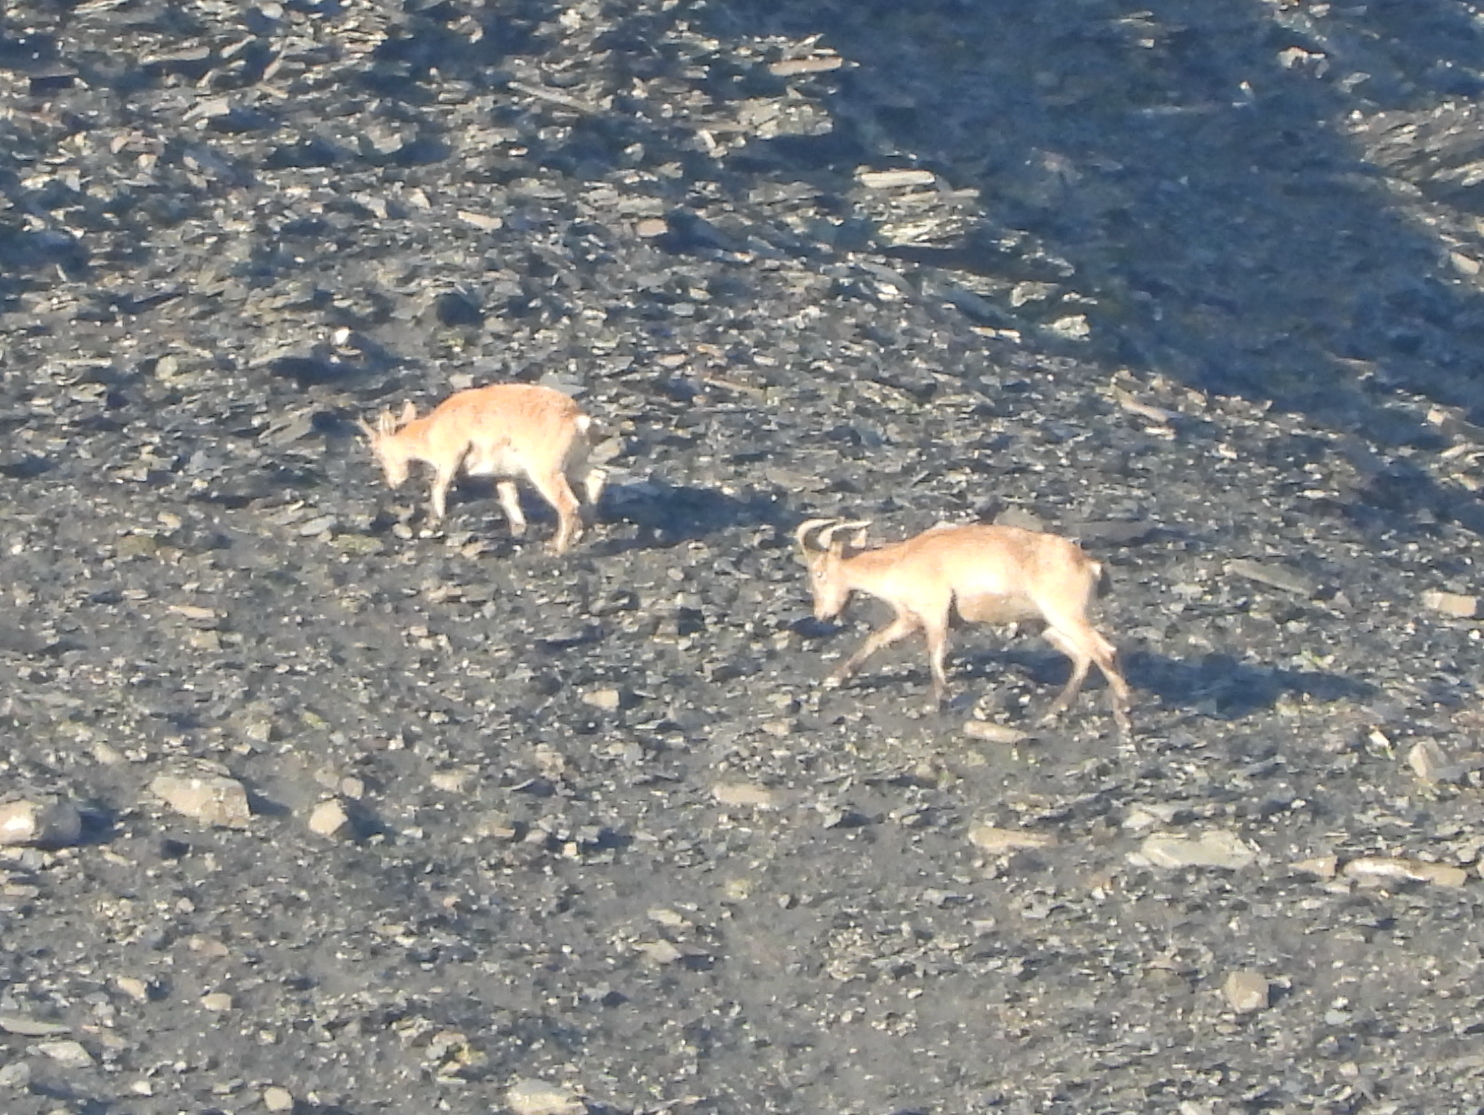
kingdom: Animalia
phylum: Chordata
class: Mammalia
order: Artiodactyla
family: Bovidae
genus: Capra
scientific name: Capra caucasica
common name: Tur
